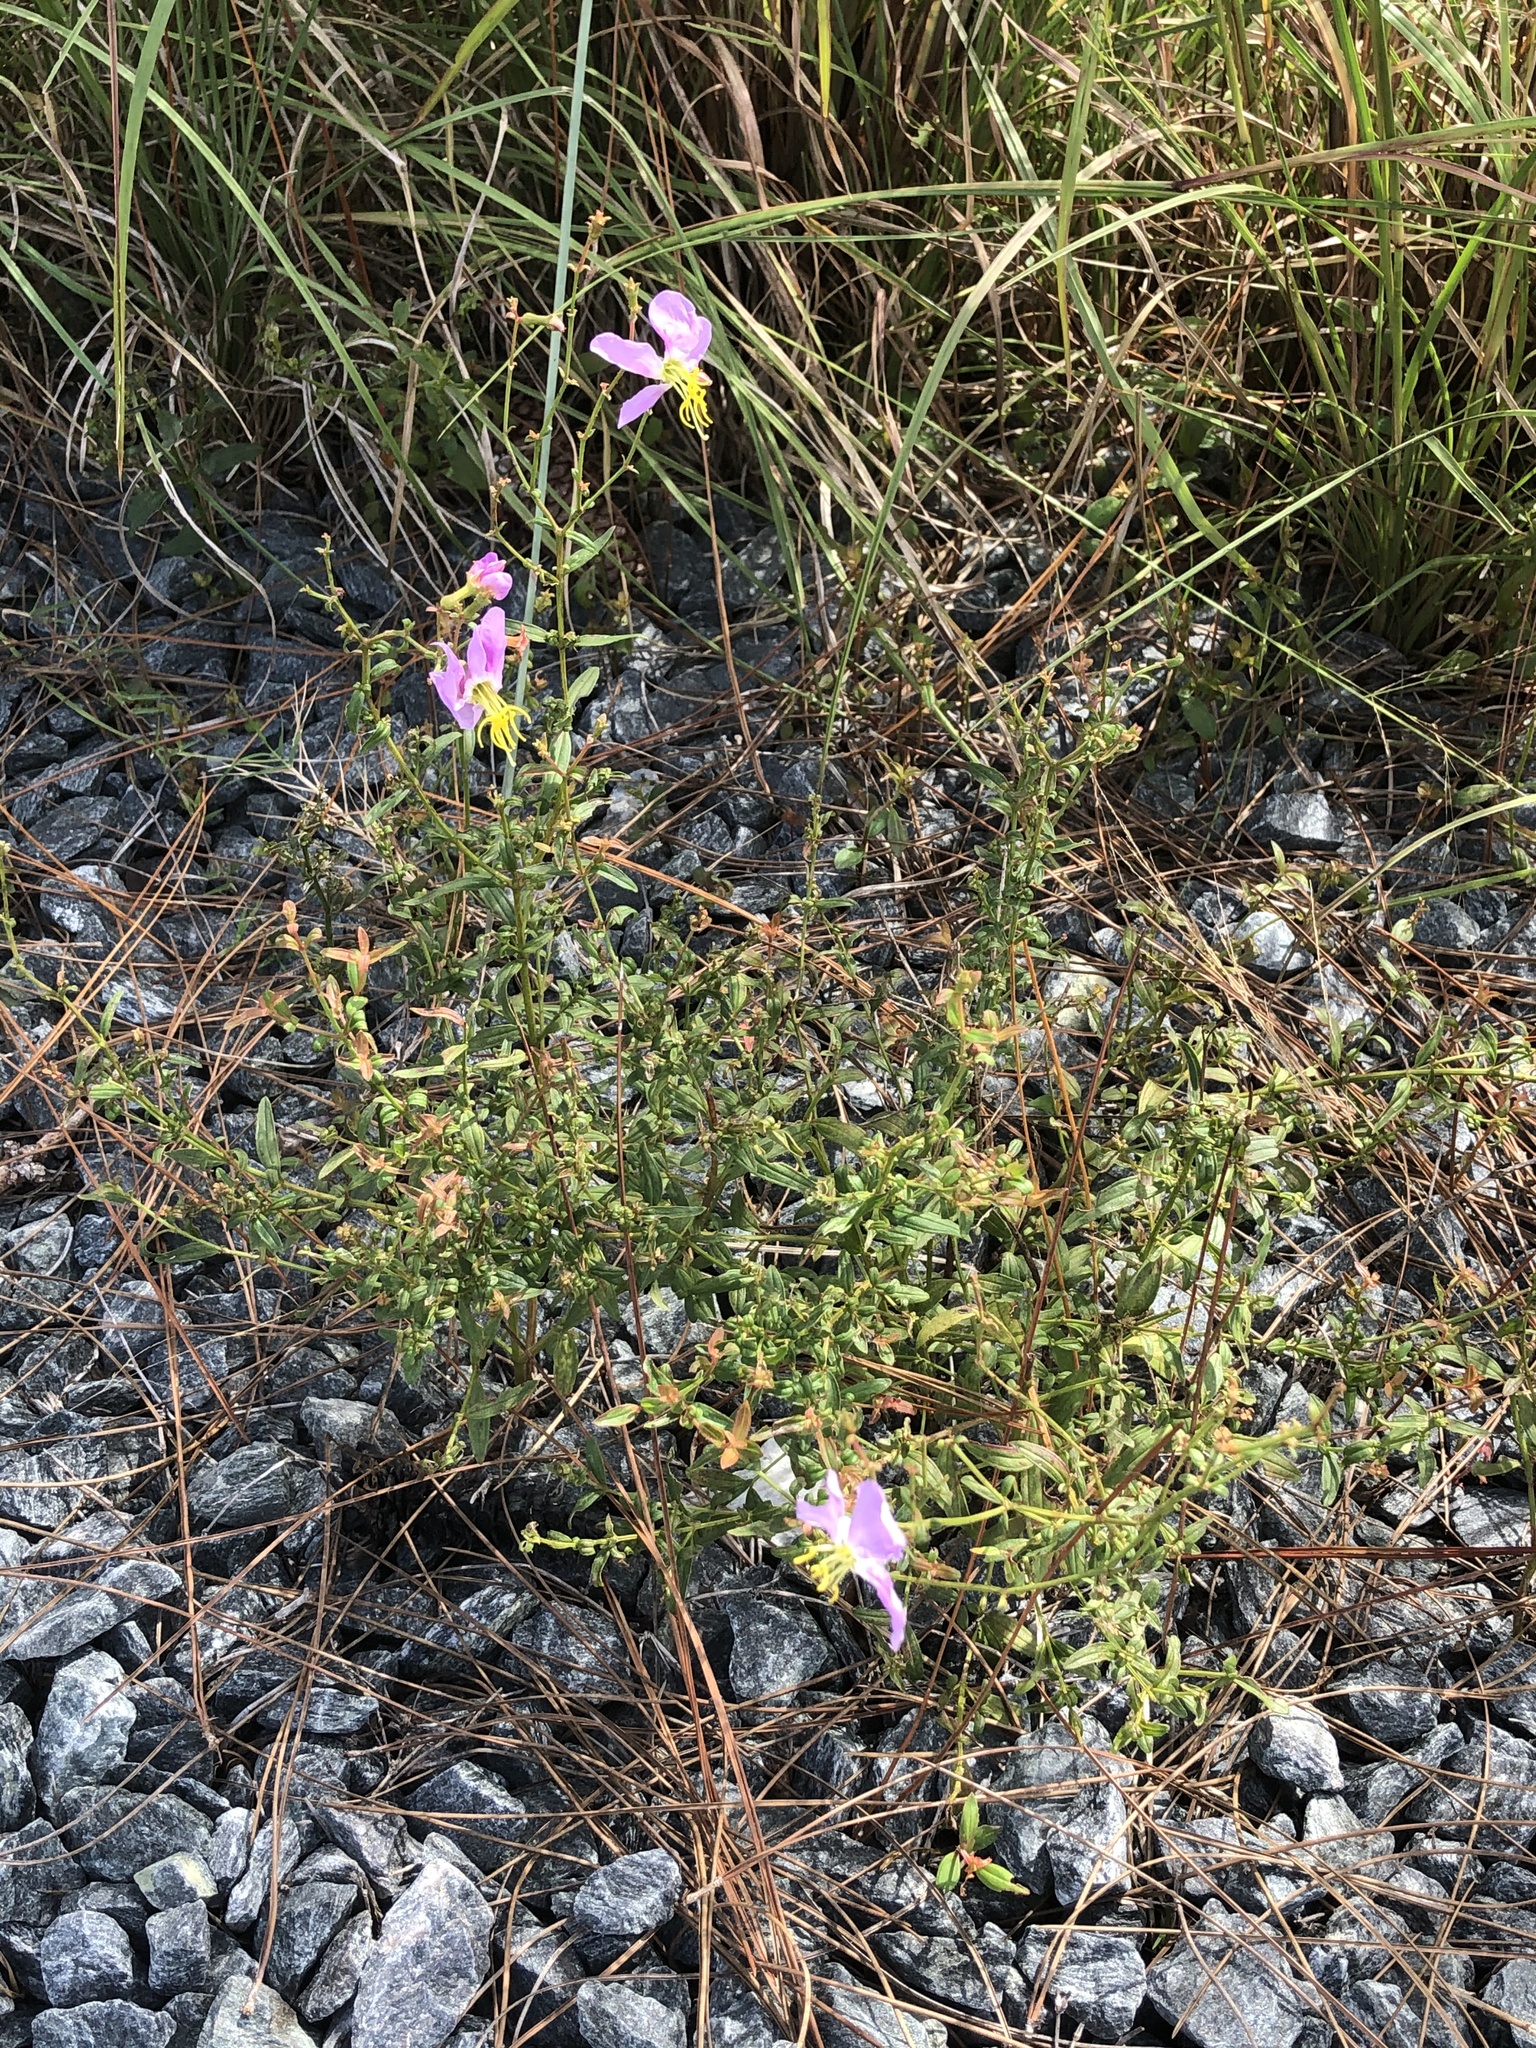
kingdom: Plantae
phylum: Tracheophyta
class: Magnoliopsida
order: Myrtales
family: Melastomataceae
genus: Rhexia
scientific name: Rhexia mariana
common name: Dull meadow-pitcher
